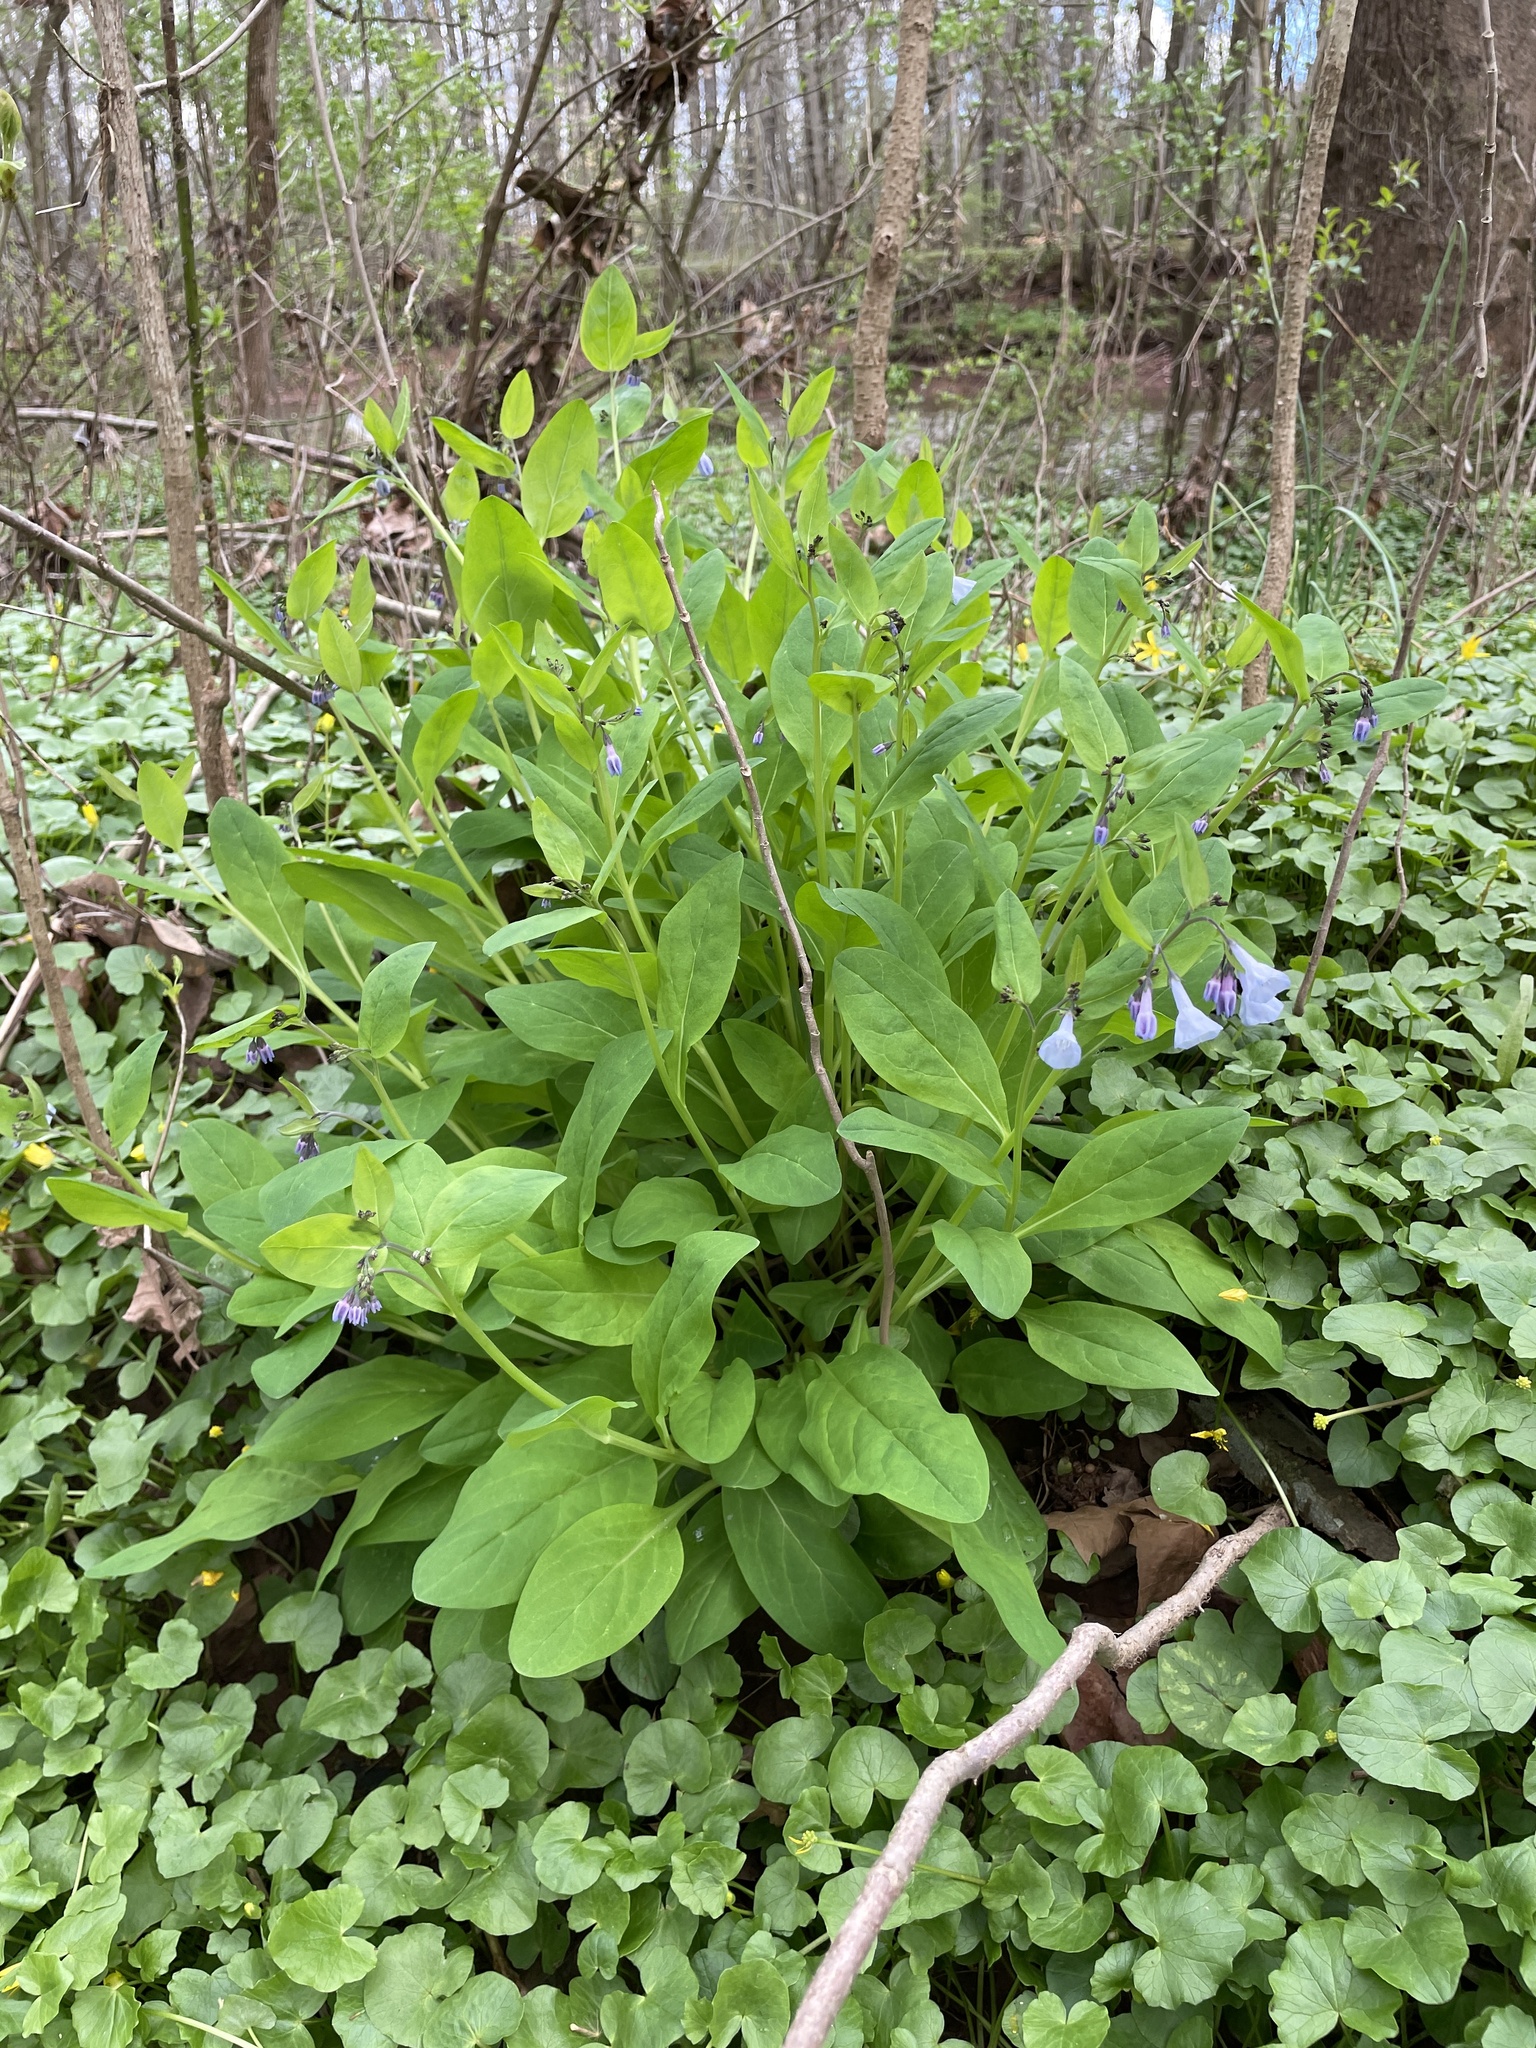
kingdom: Plantae
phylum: Tracheophyta
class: Magnoliopsida
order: Boraginales
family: Boraginaceae
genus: Mertensia
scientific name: Mertensia virginica
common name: Virginia bluebells
